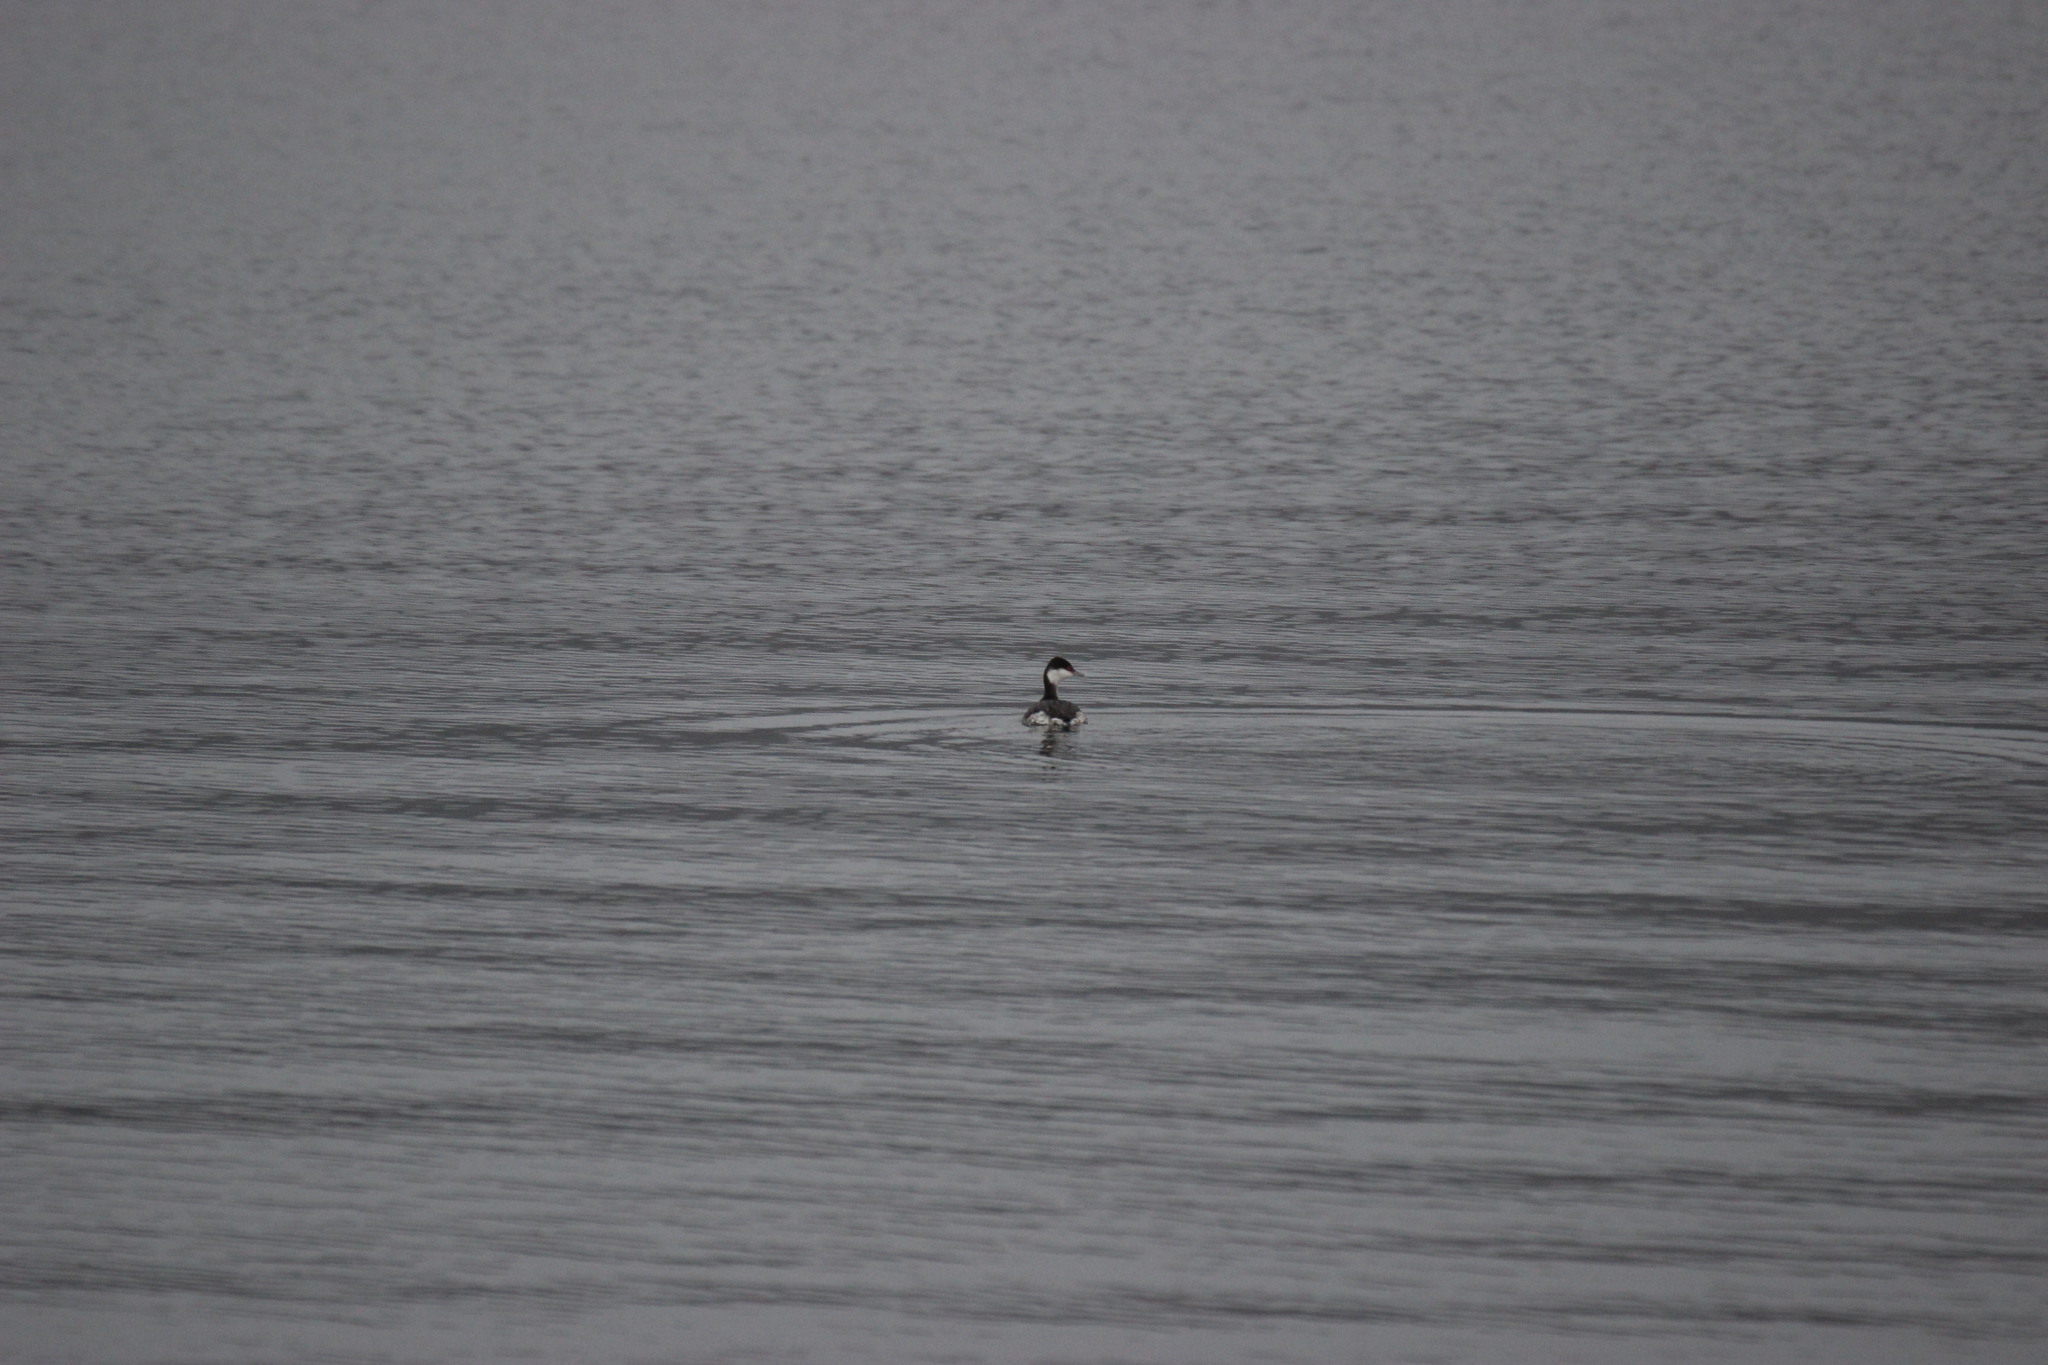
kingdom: Animalia
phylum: Chordata
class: Aves
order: Podicipediformes
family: Podicipedidae
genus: Podiceps
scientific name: Podiceps auritus
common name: Horned grebe
